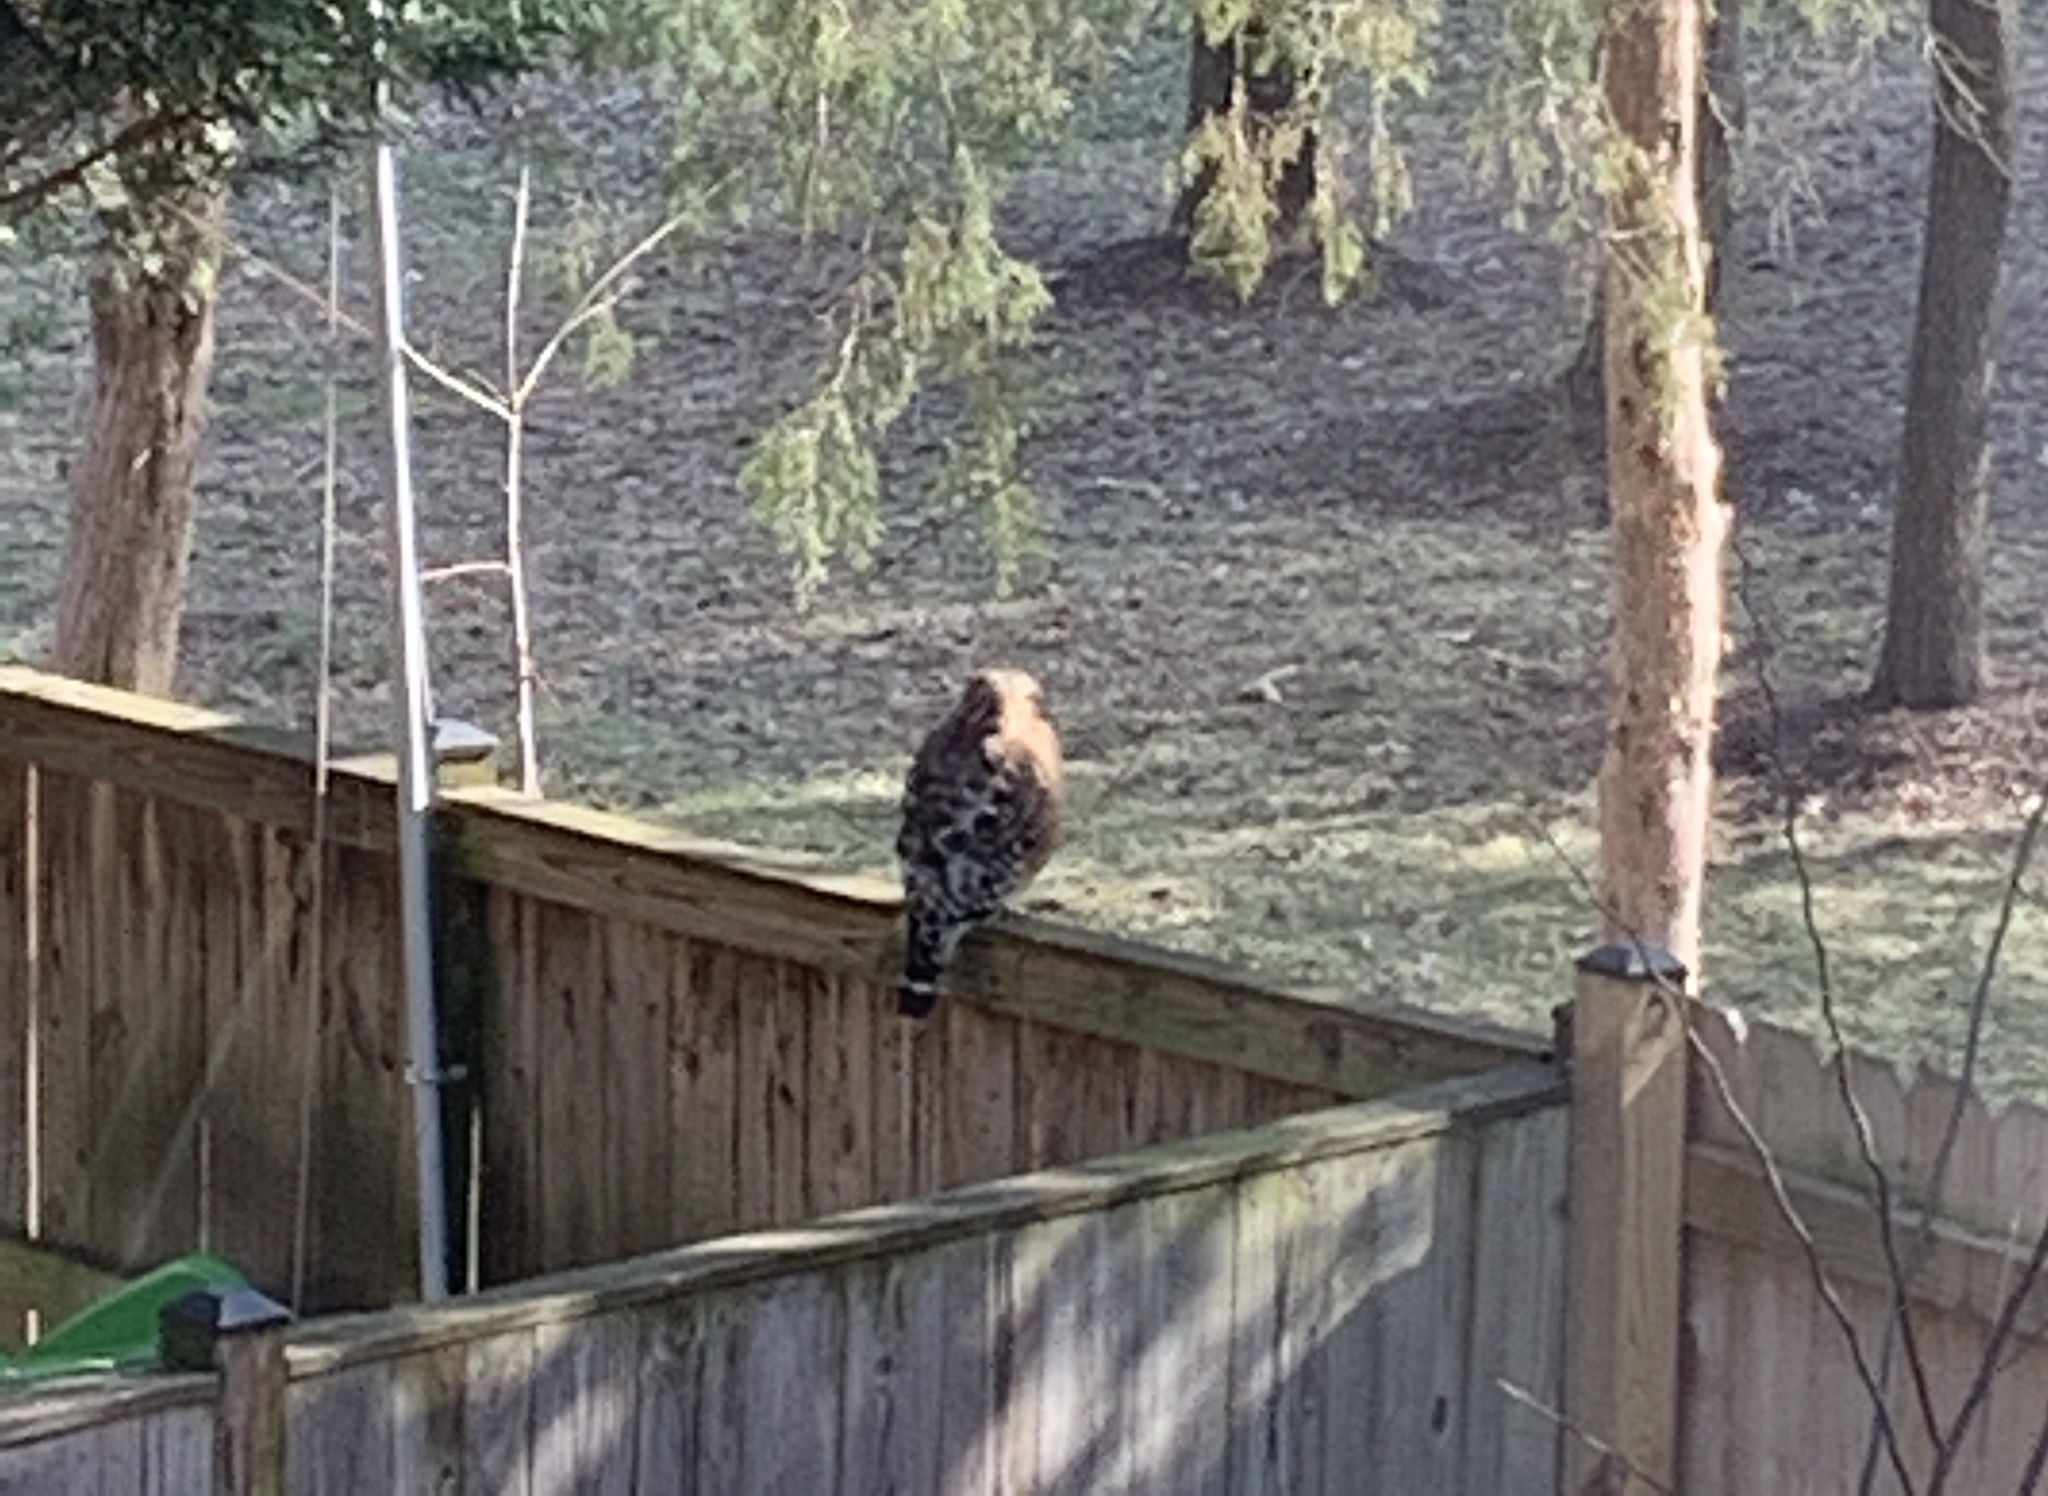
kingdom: Animalia
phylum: Chordata
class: Aves
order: Accipitriformes
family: Accipitridae
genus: Buteo
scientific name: Buteo lineatus
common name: Red-shouldered hawk
